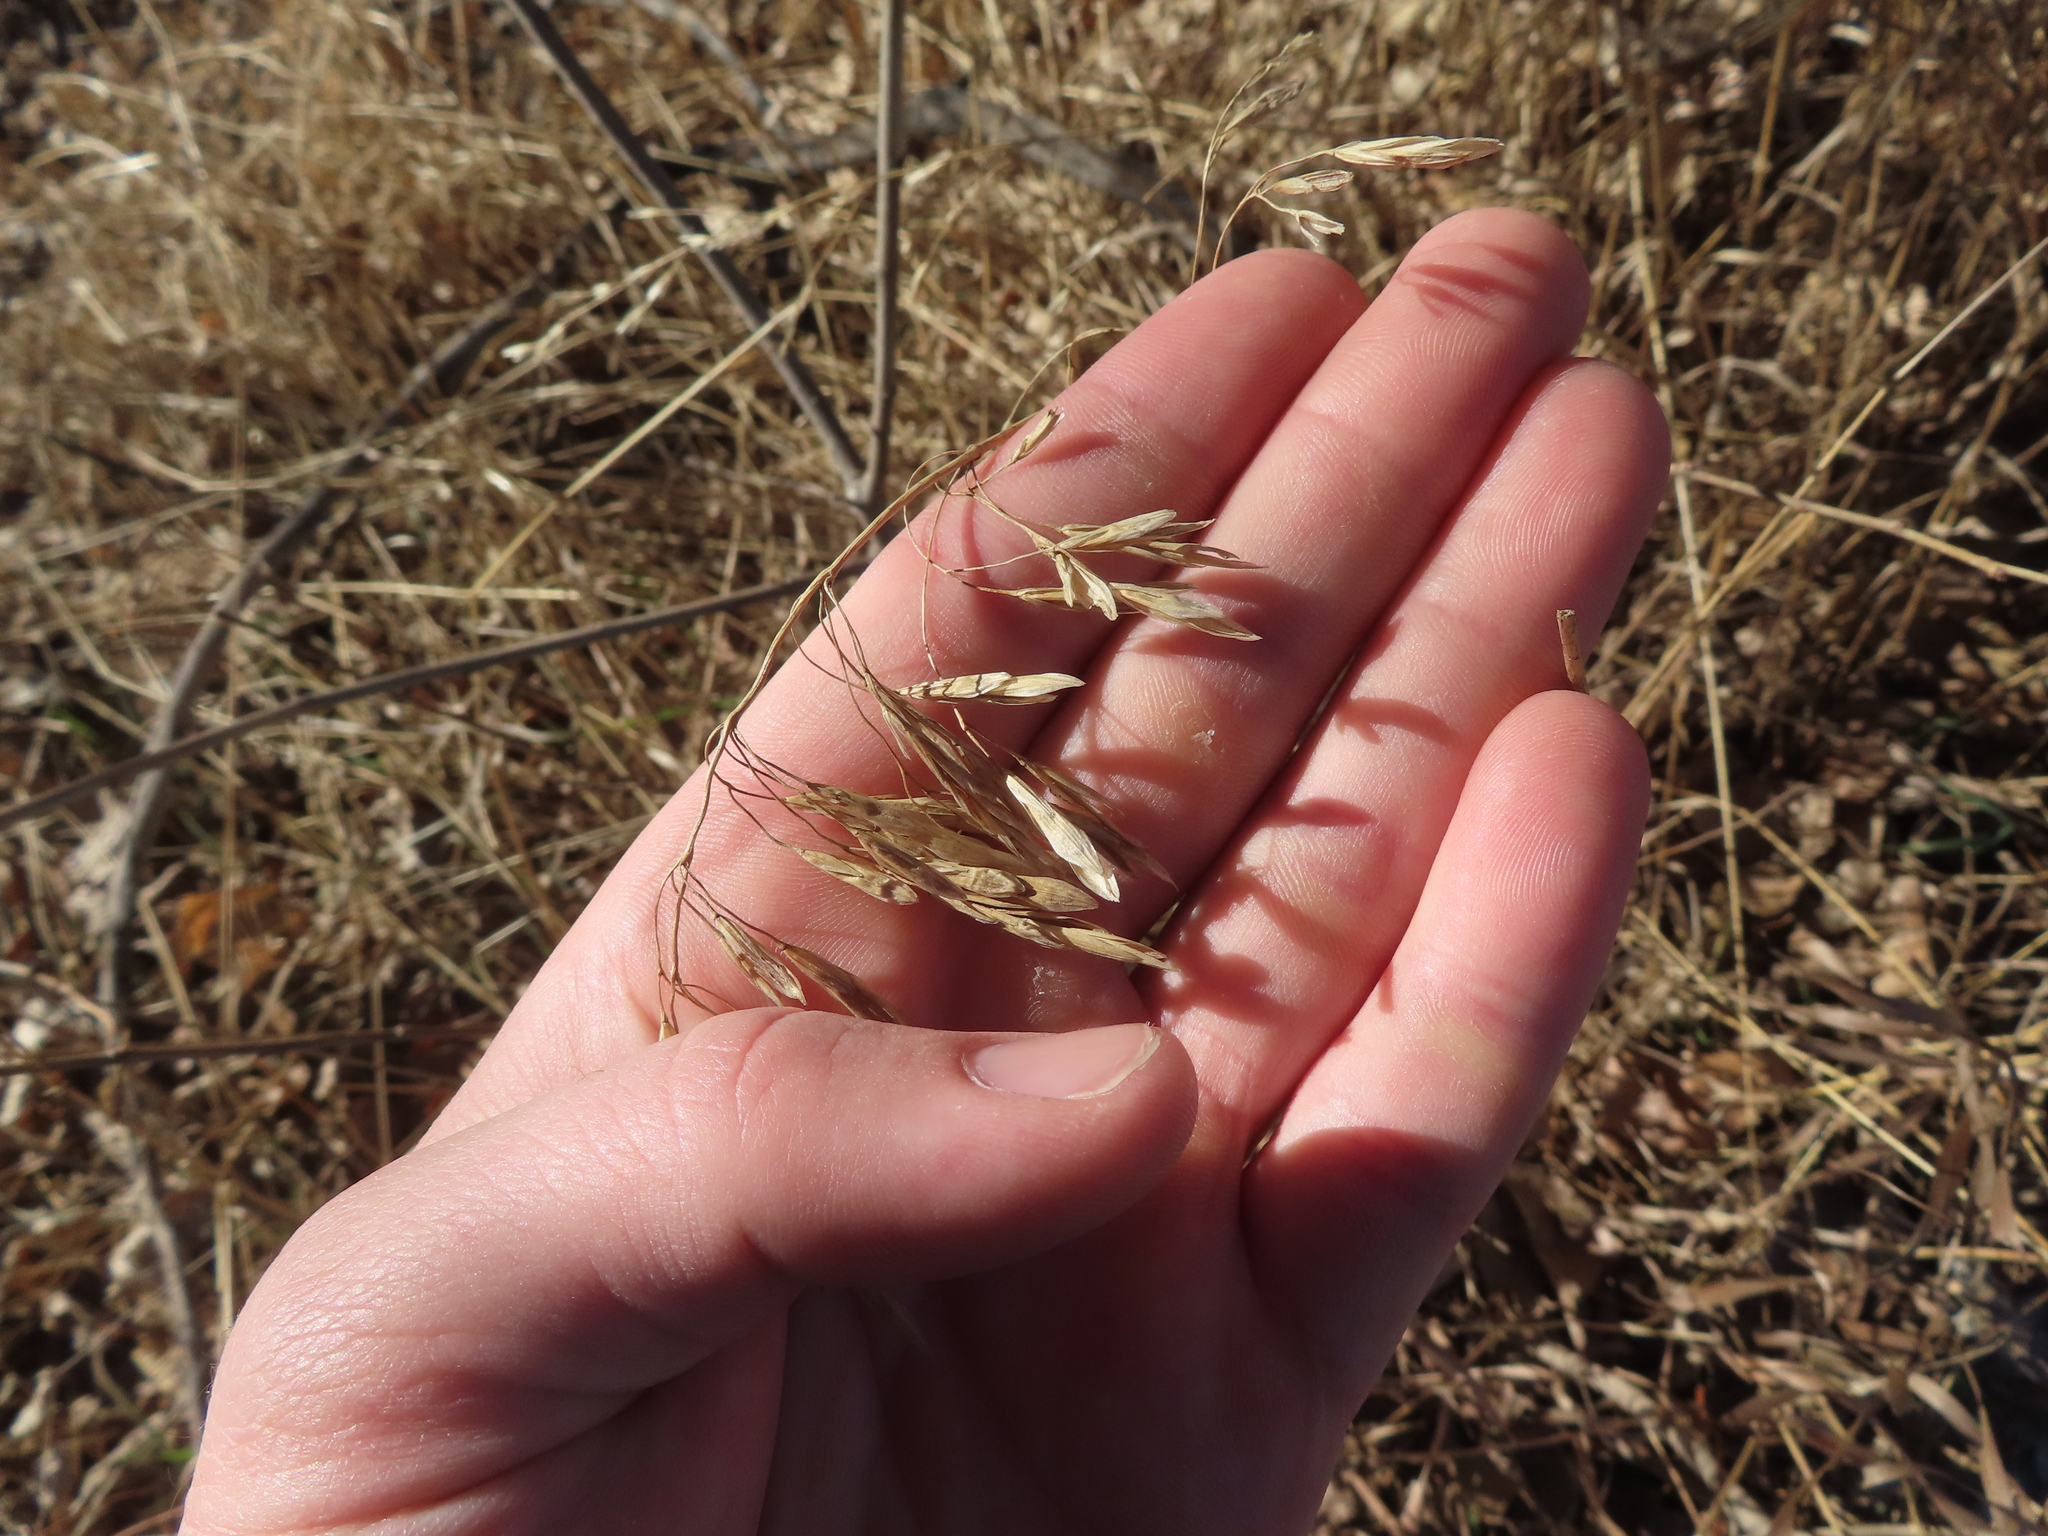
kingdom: Plantae
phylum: Tracheophyta
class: Liliopsida
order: Poales
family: Poaceae
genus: Bromus
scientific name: Bromus inermis
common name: Smooth brome
